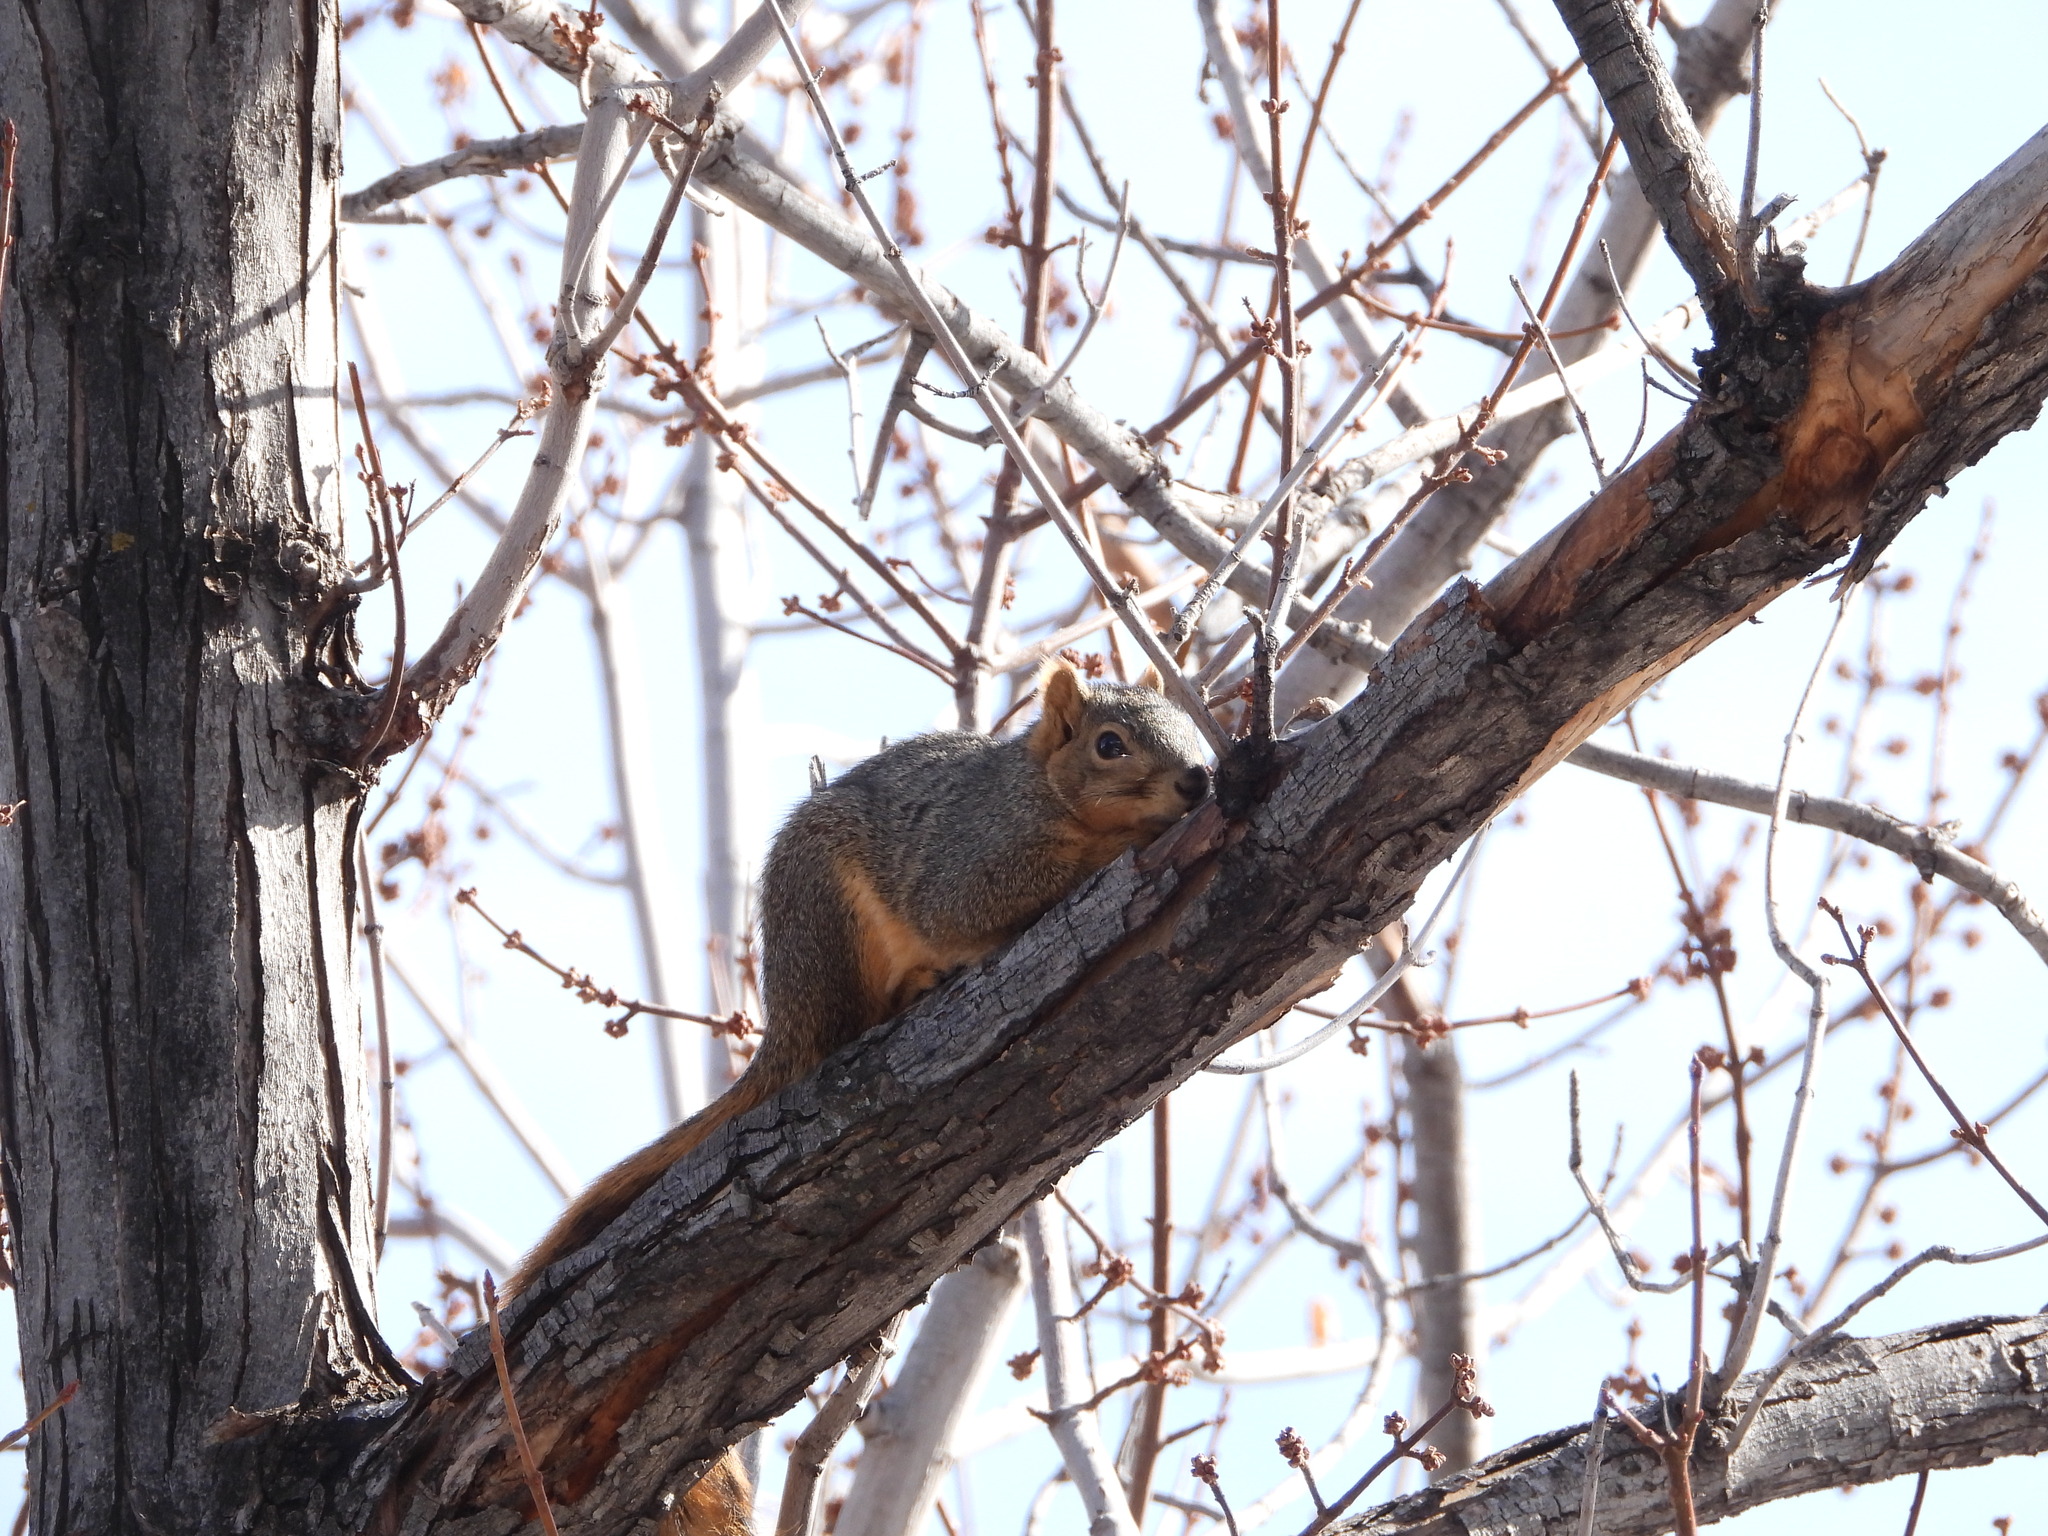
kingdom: Animalia
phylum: Chordata
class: Mammalia
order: Rodentia
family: Sciuridae
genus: Sciurus
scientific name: Sciurus niger
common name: Fox squirrel
